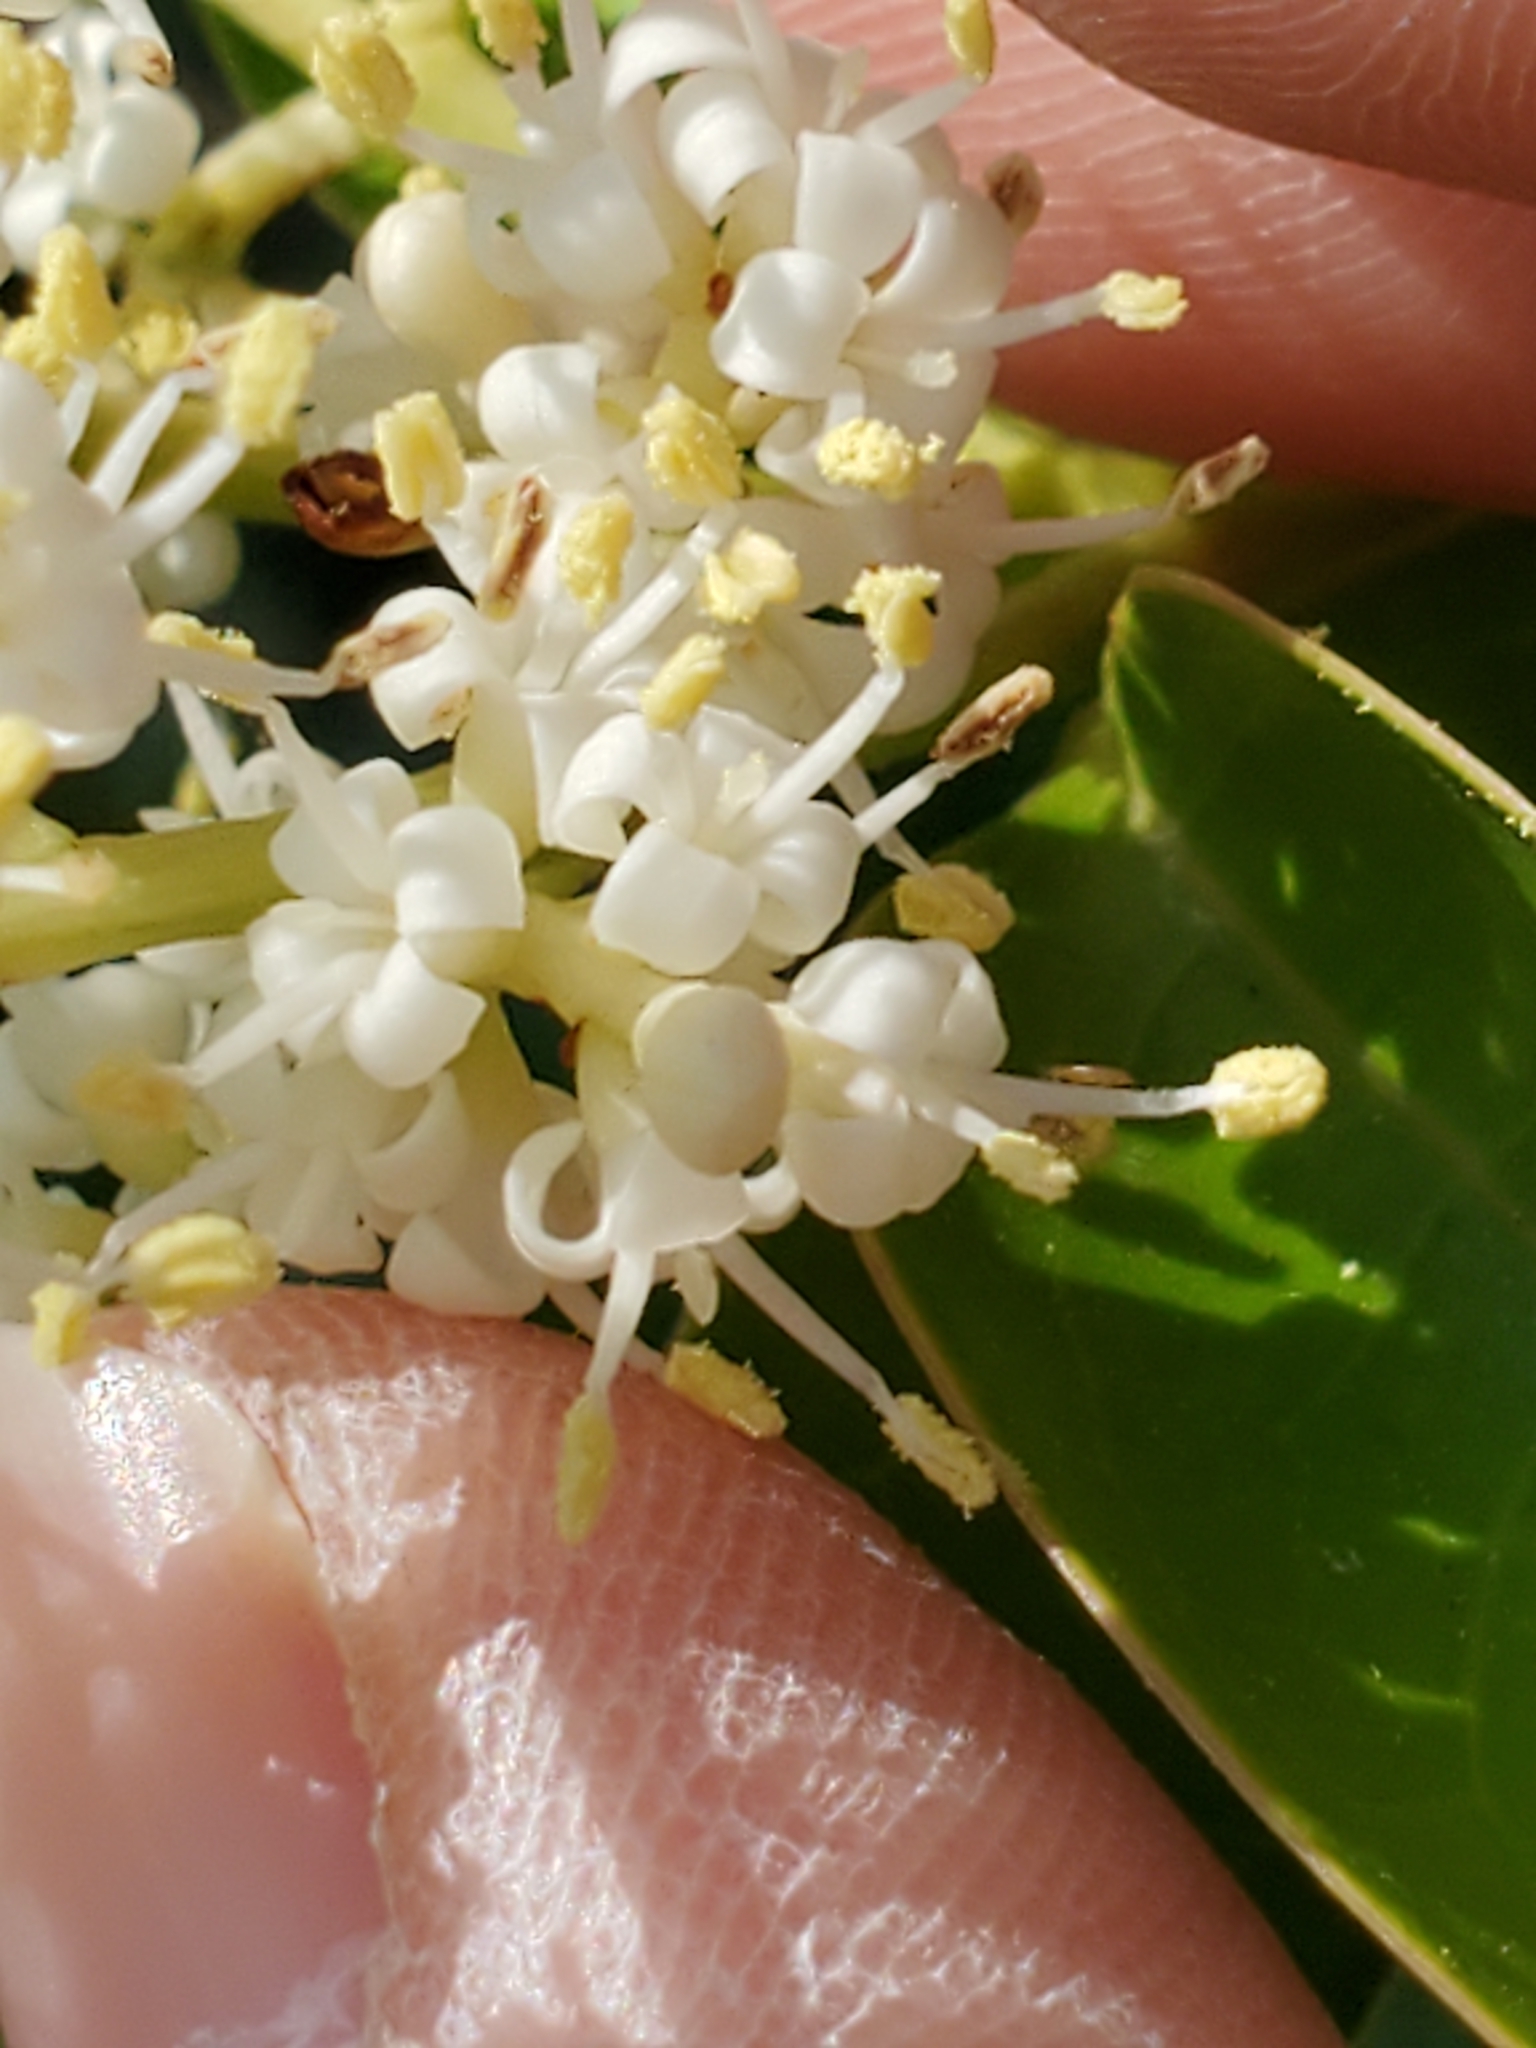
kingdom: Plantae
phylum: Tracheophyta
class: Magnoliopsida
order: Lamiales
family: Oleaceae
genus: Ligustrum
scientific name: Ligustrum lucidum
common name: Glossy privet
